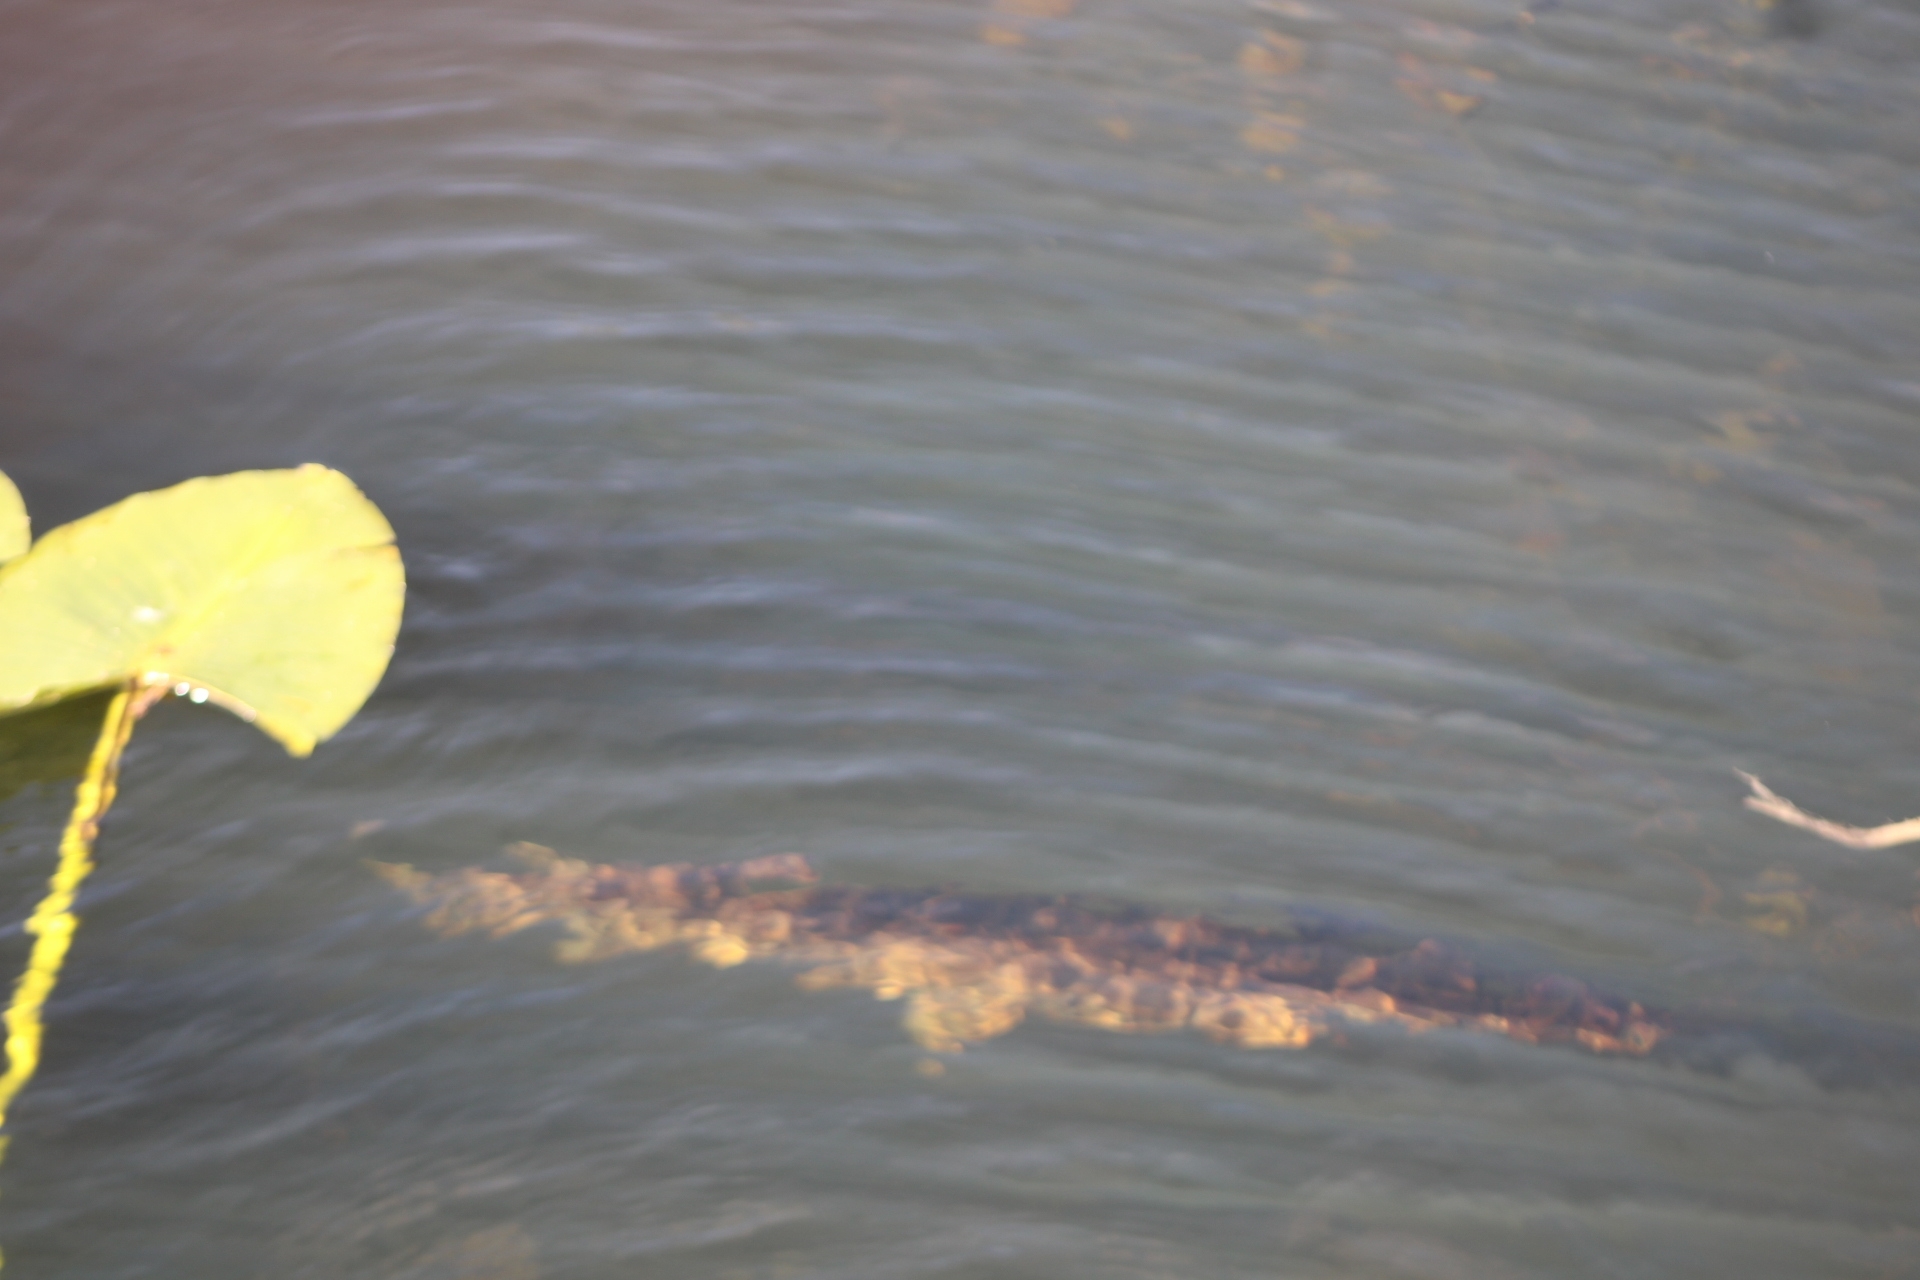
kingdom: Animalia
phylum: Chordata
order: Lepisosteiformes
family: Lepisosteidae
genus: Lepisosteus
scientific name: Lepisosteus platyrhincus
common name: Florida gar
